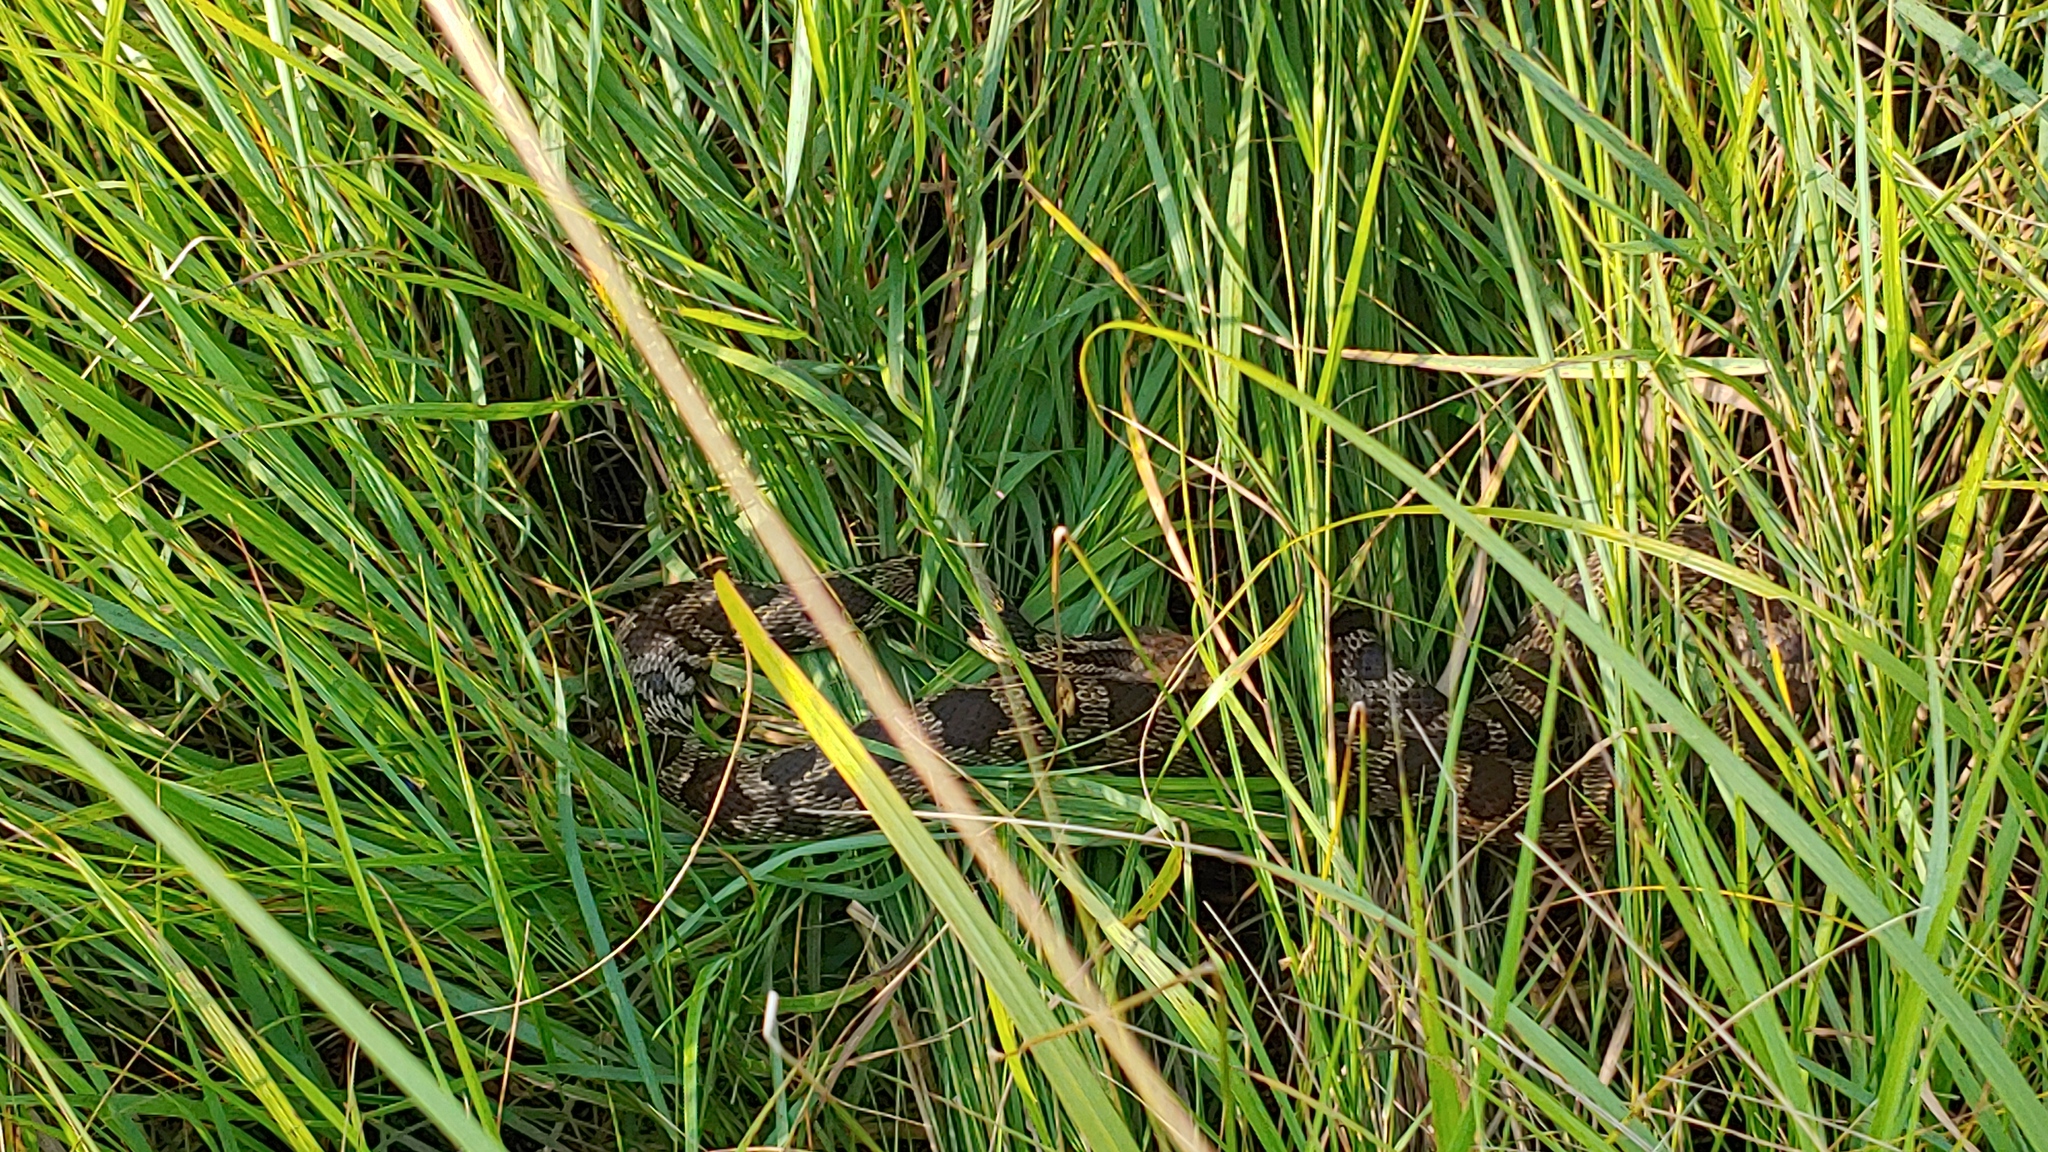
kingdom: Animalia
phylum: Chordata
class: Squamata
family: Colubridae
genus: Pantherophis
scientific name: Pantherophis vulpinus
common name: Eastern fox snake
